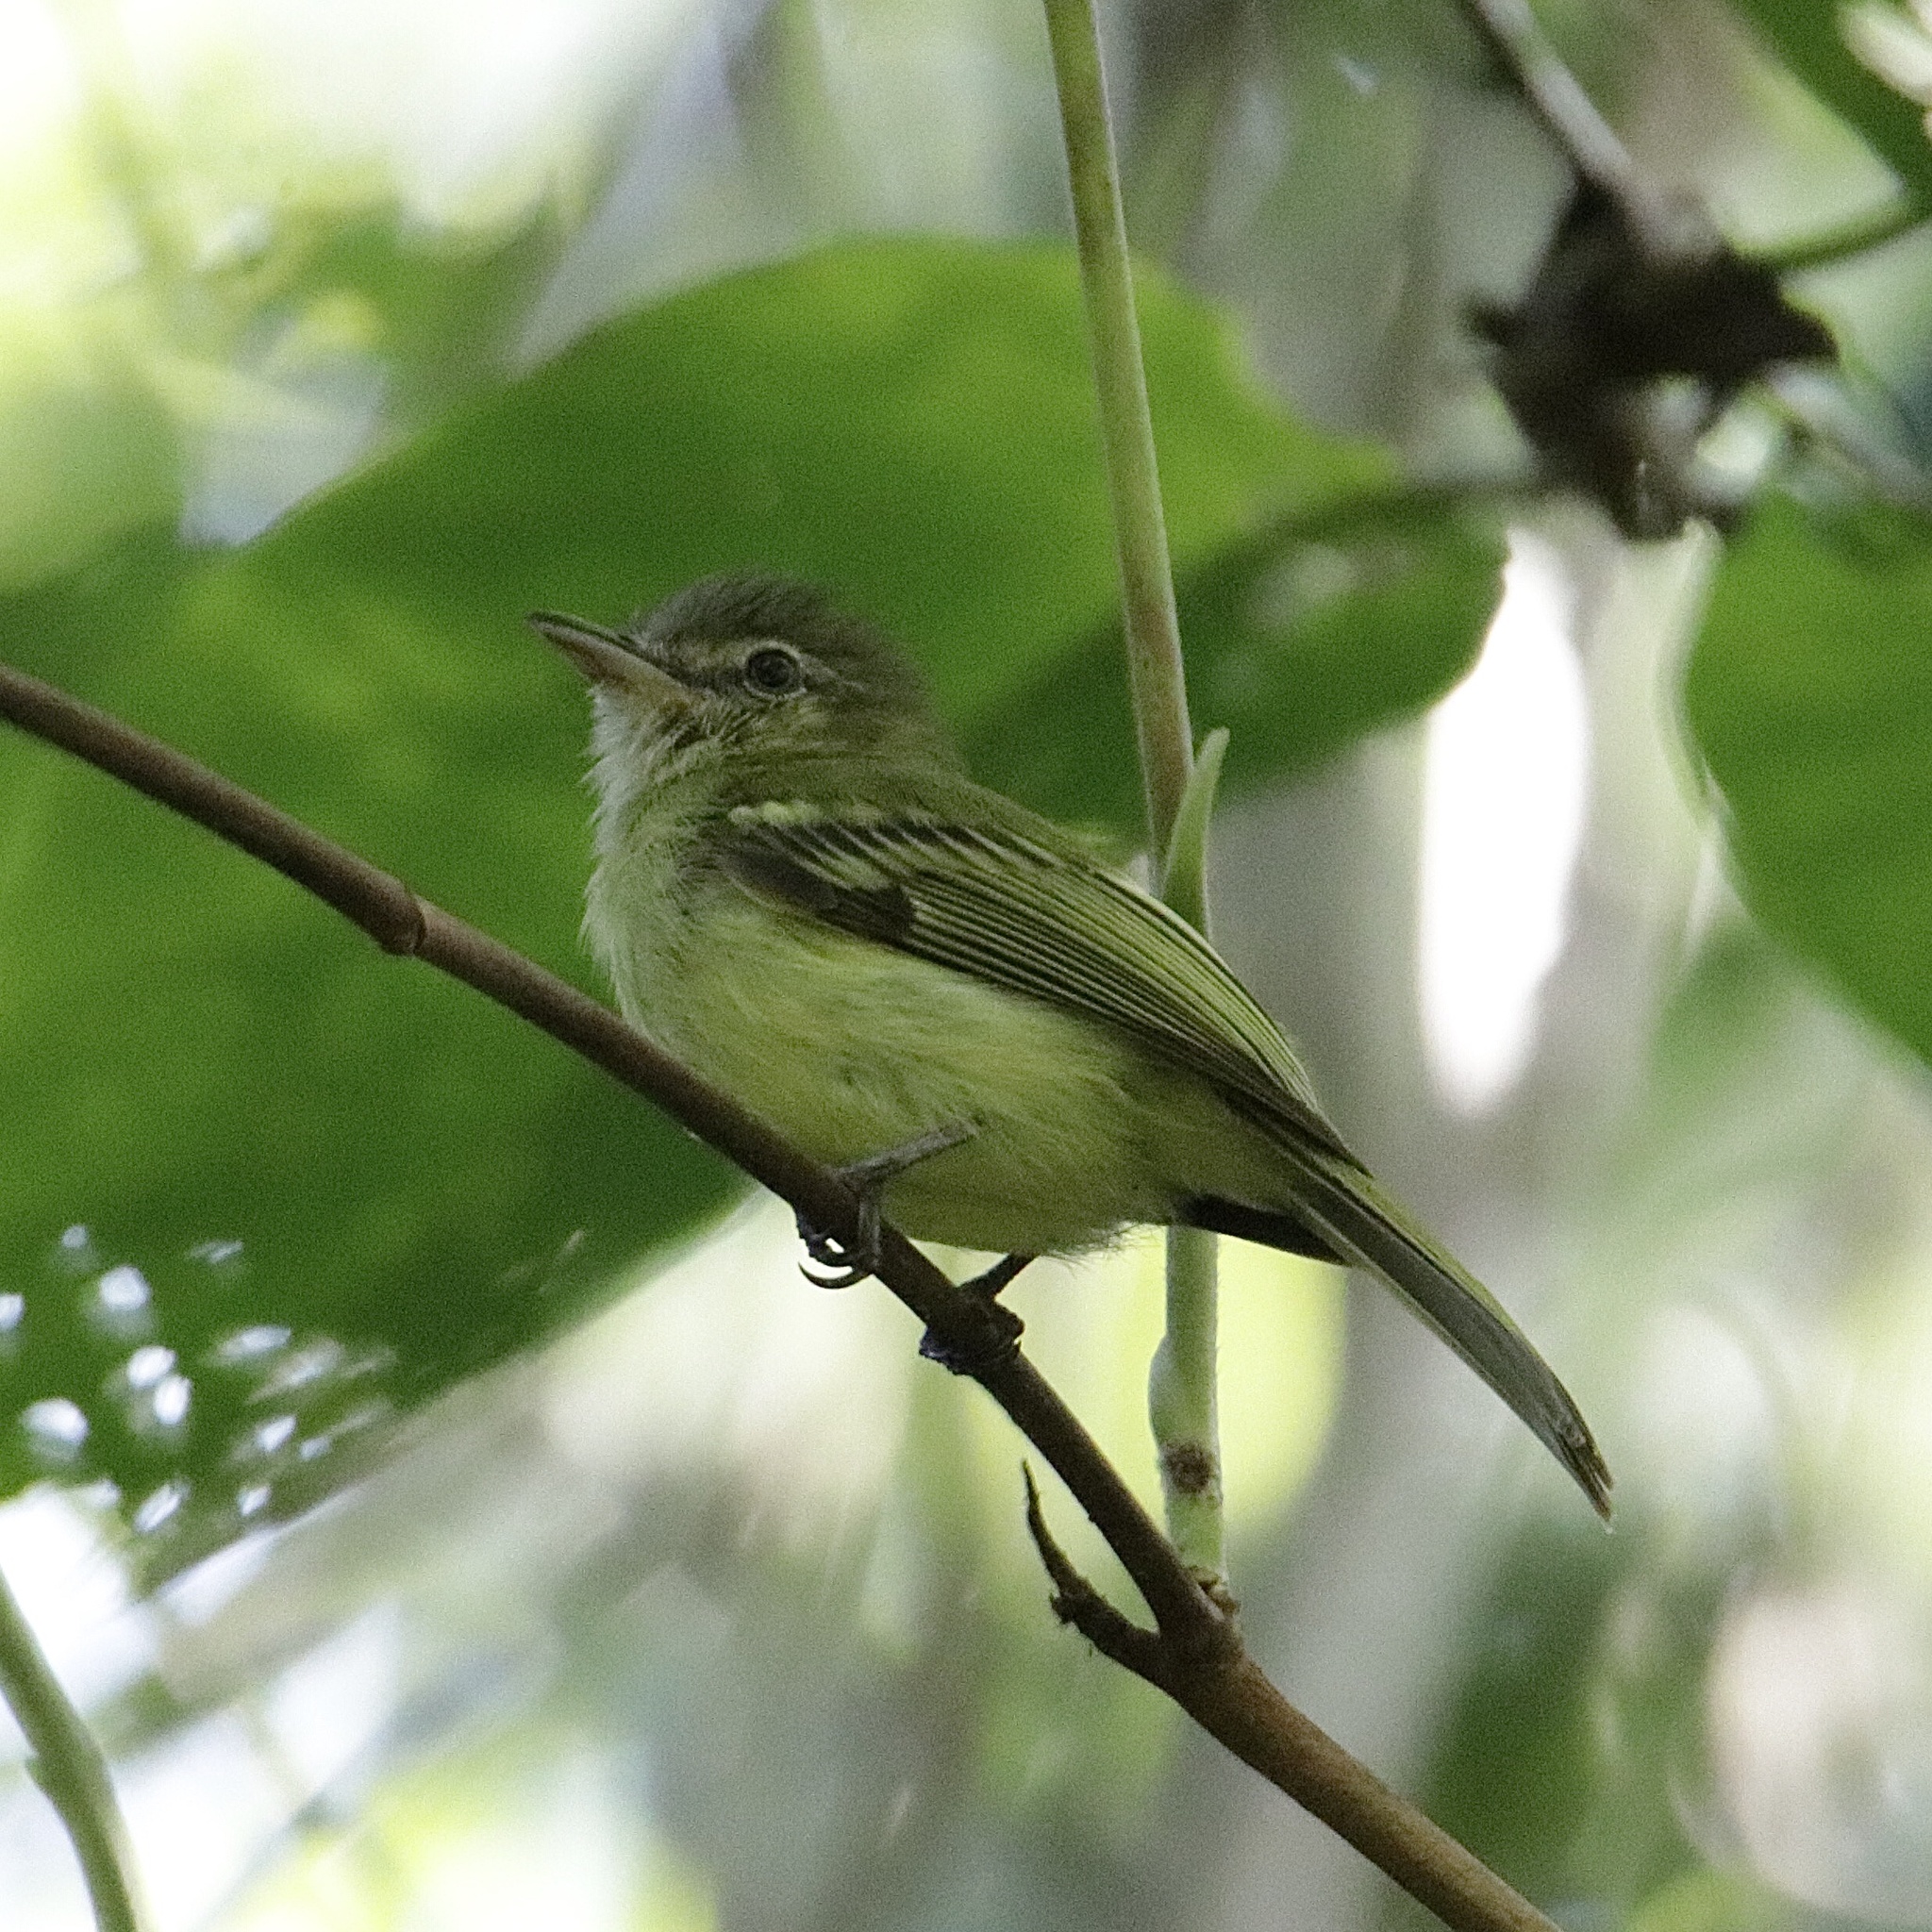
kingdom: Animalia
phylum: Chordata
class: Aves
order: Passeriformes
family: Tyrannidae
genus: Tolmomyias
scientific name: Tolmomyias sulphurescens
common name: Yellow-olive flycatcher
